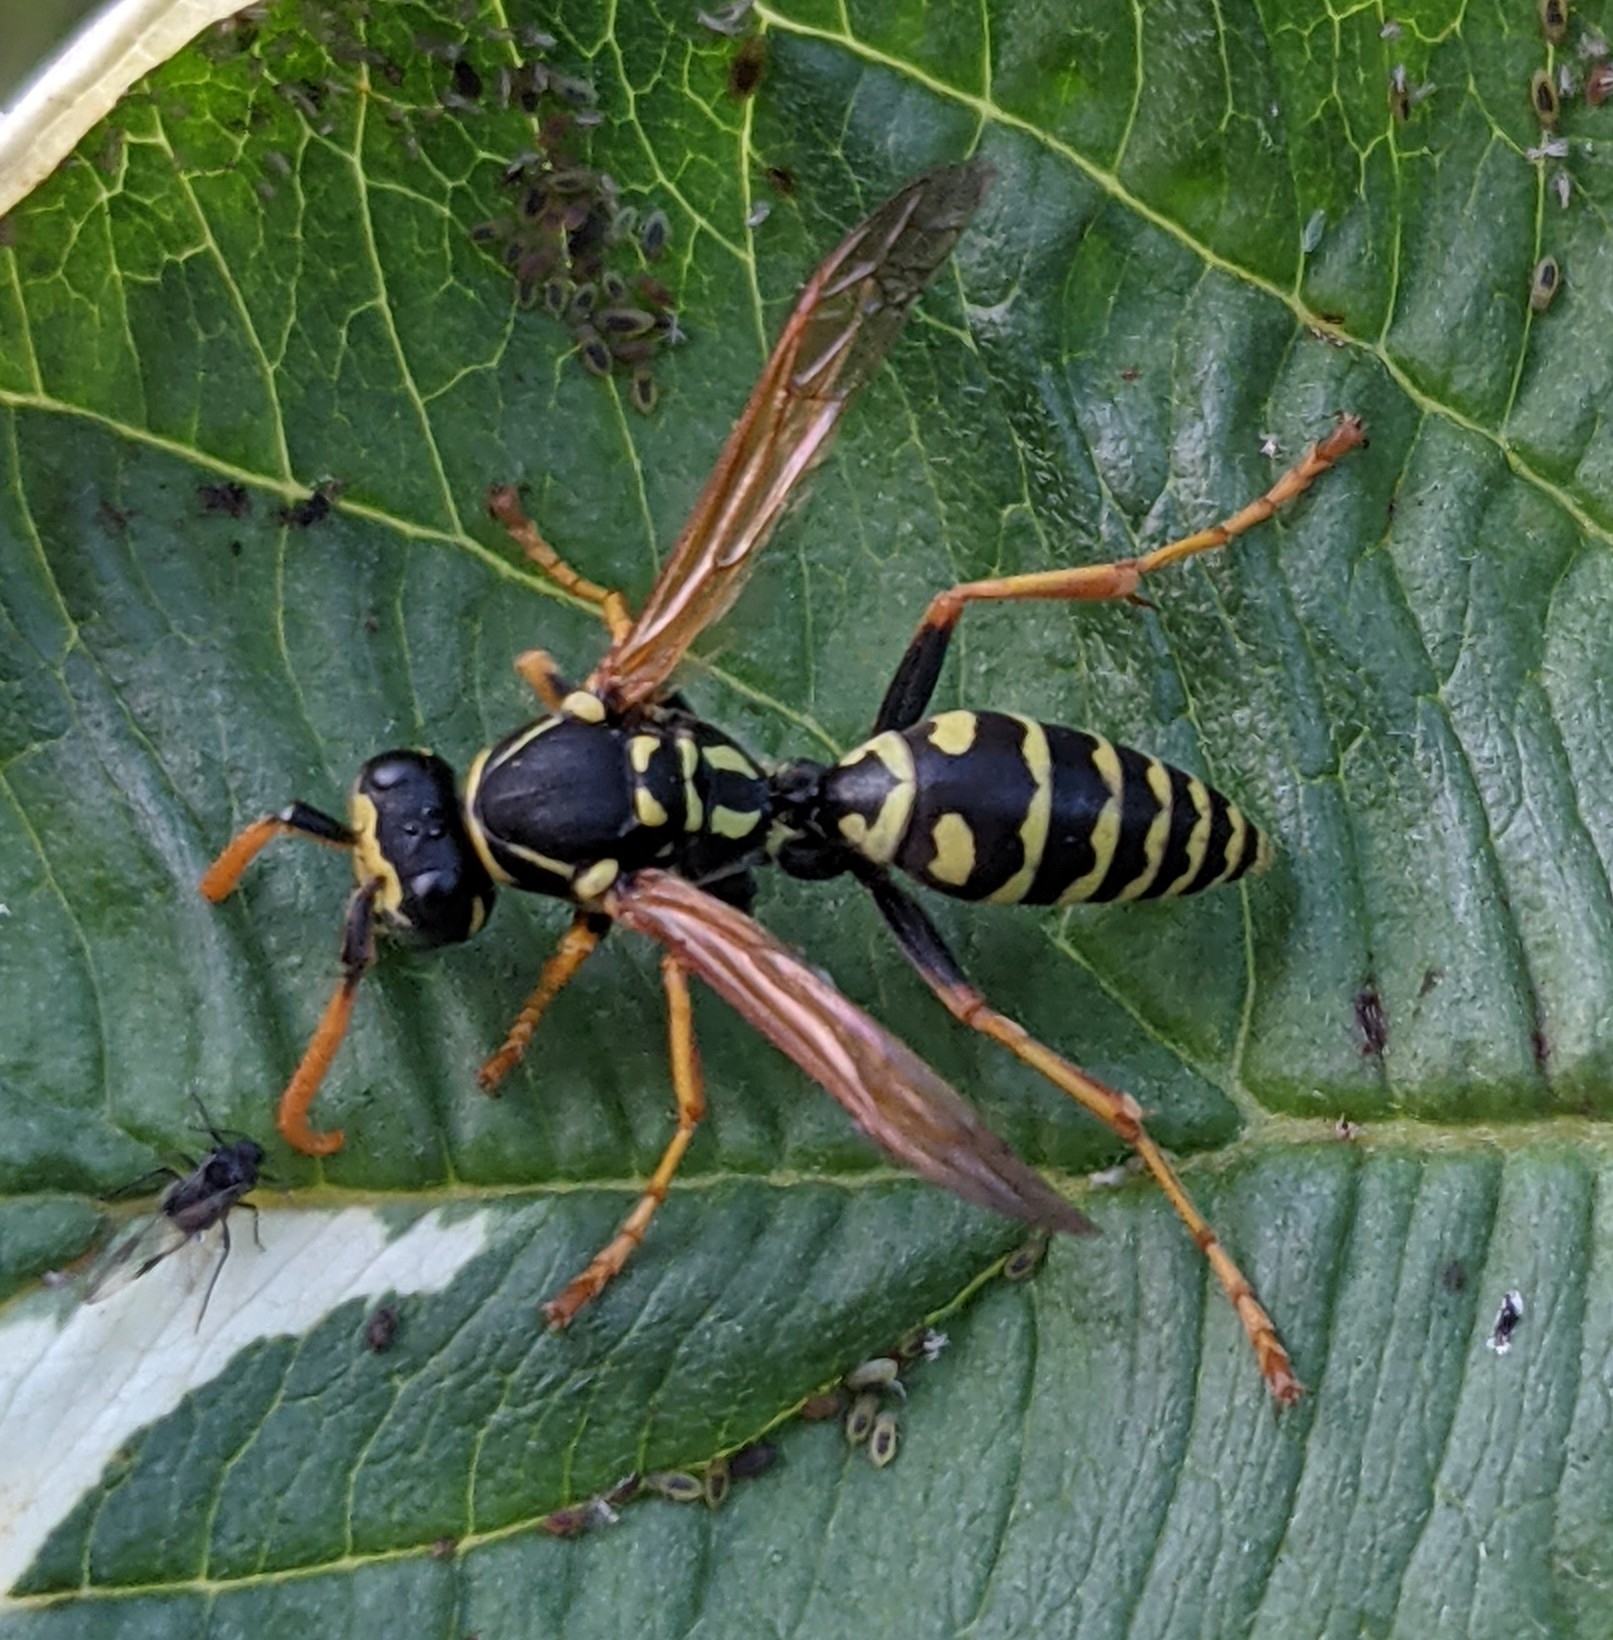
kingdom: Animalia
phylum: Arthropoda
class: Insecta
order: Hymenoptera
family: Eumenidae
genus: Polistes
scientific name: Polistes dominula
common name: Paper wasp
